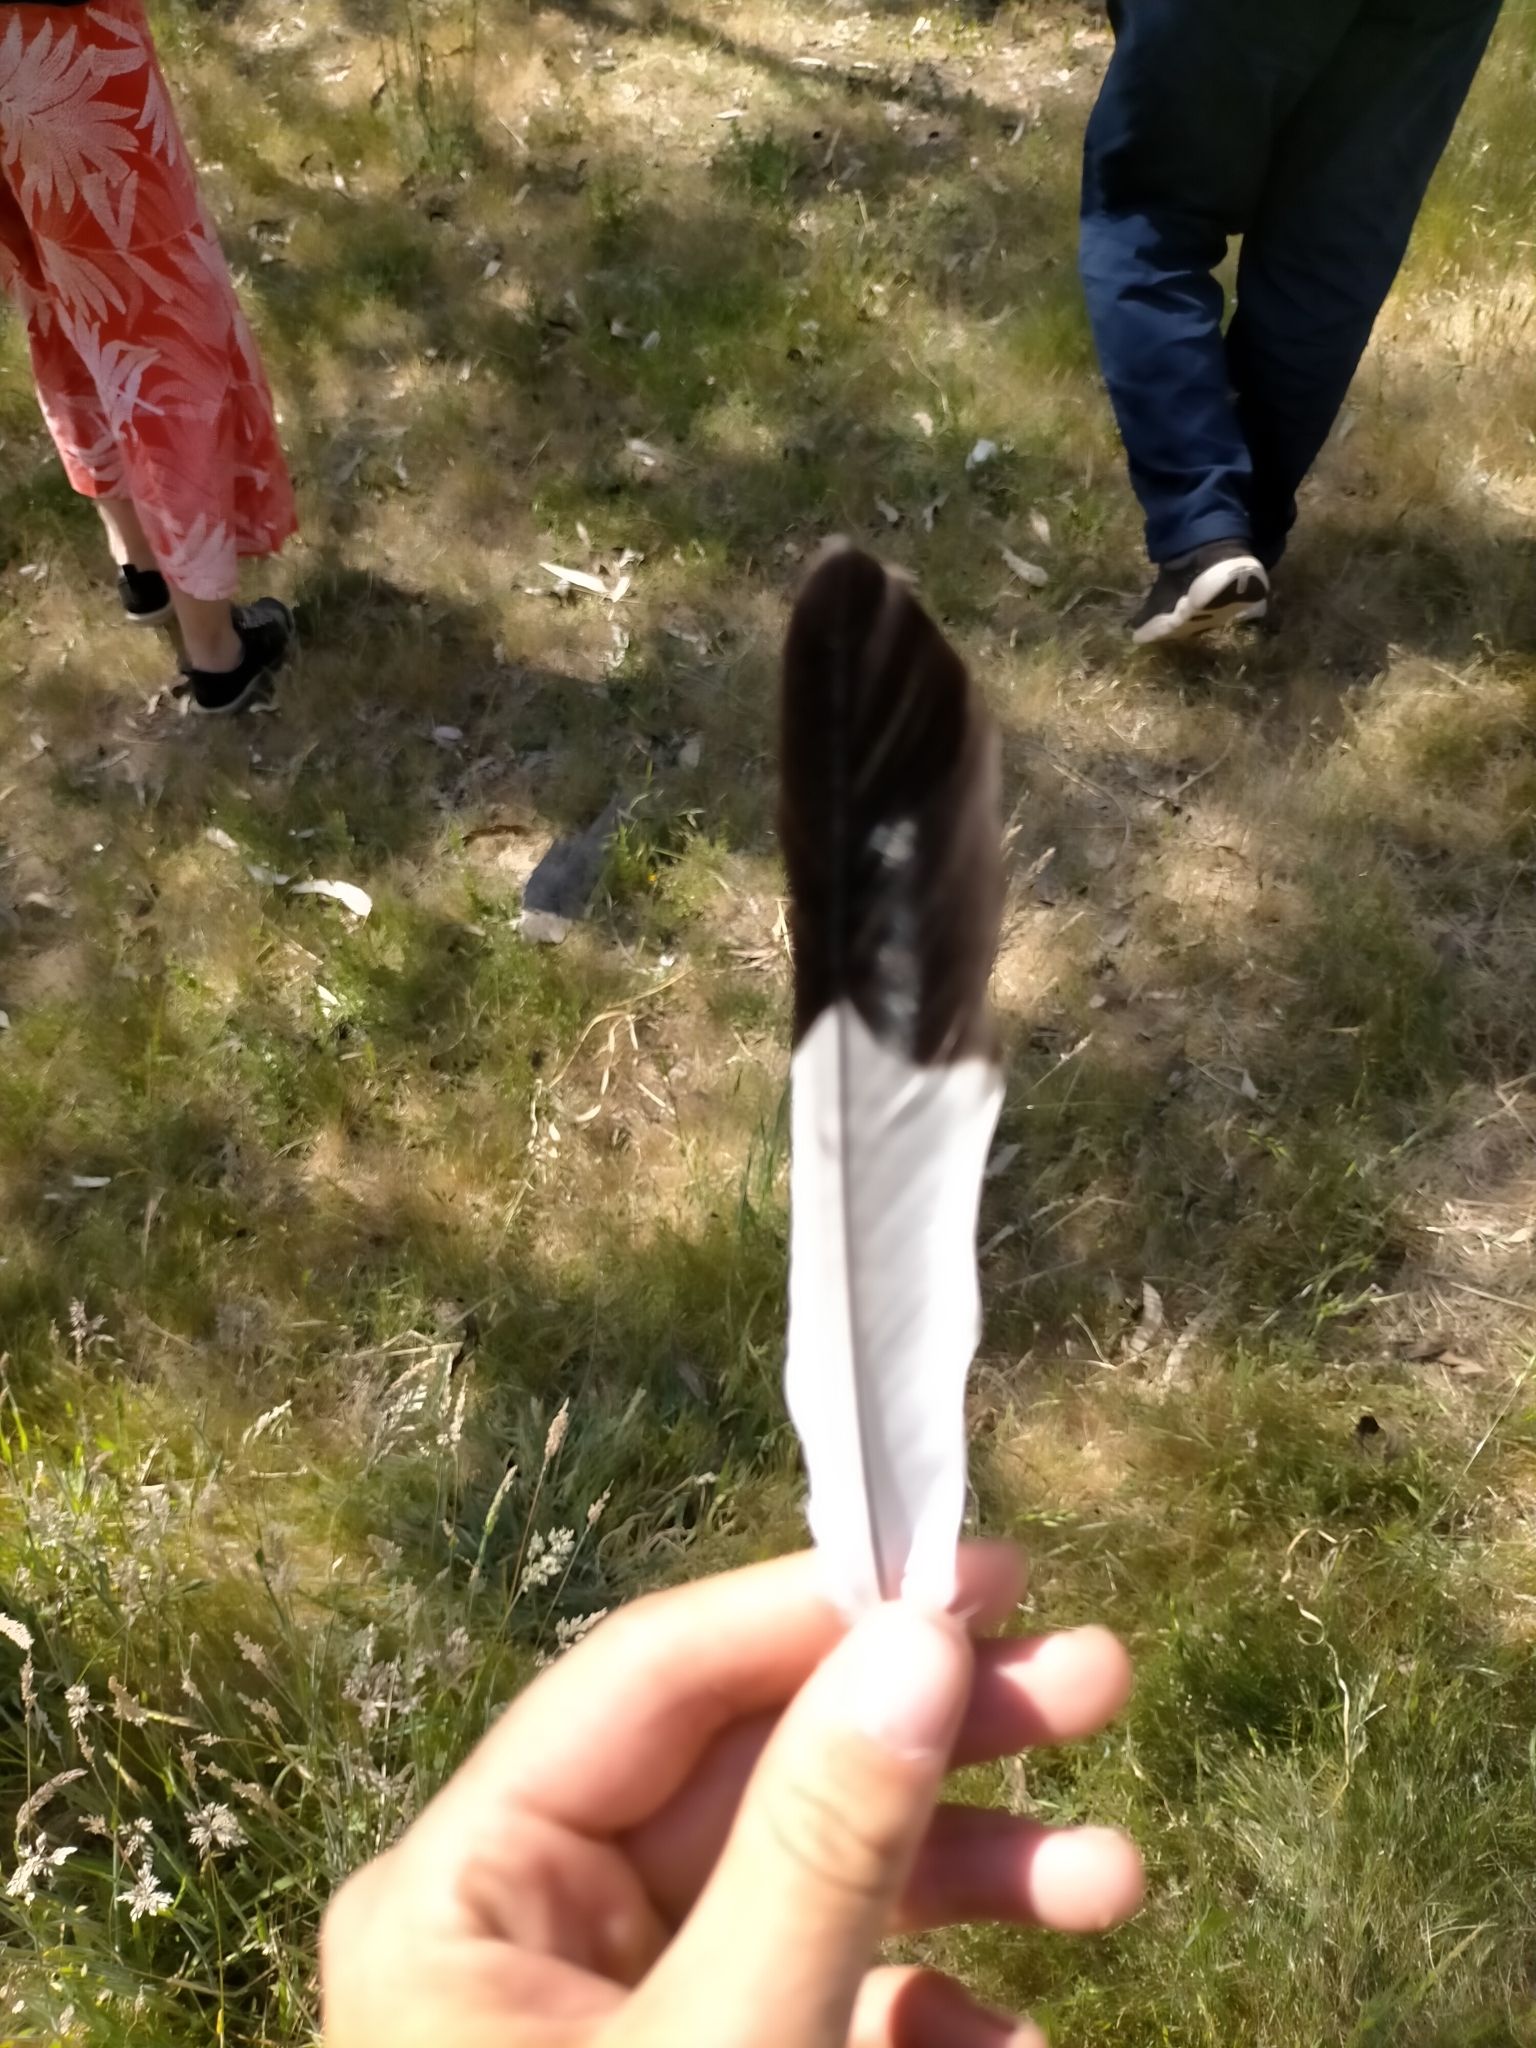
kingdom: Animalia
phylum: Chordata
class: Aves
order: Passeriformes
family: Cracticidae
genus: Gymnorhina
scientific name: Gymnorhina tibicen
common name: Australian magpie
